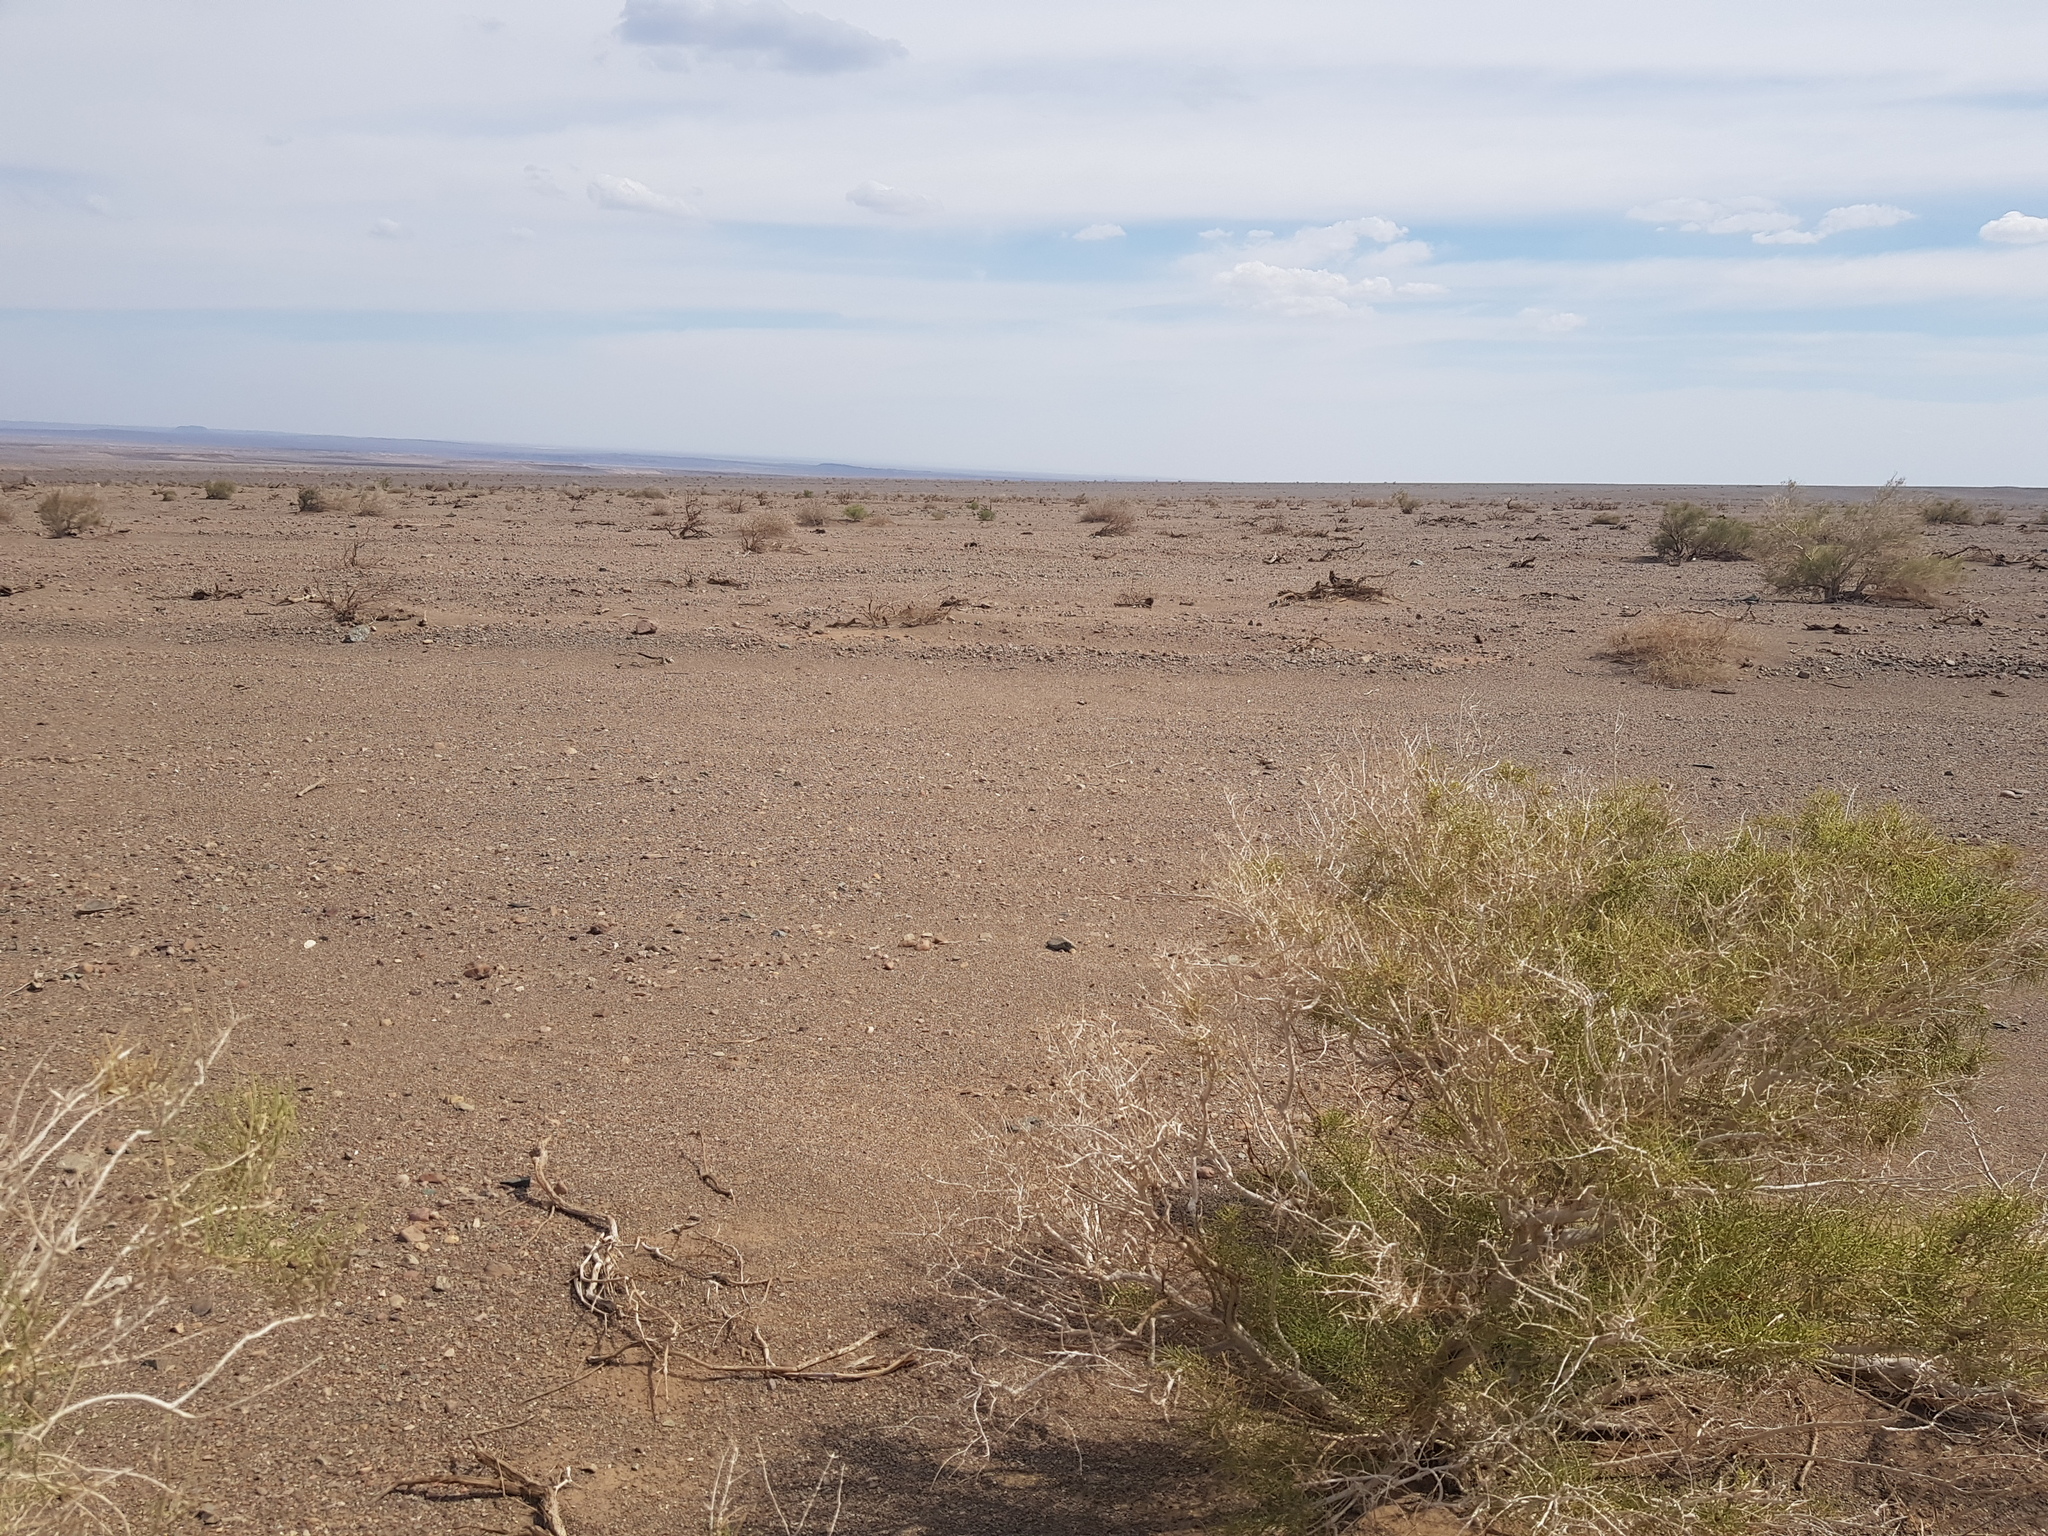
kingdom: Plantae
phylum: Tracheophyta
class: Magnoliopsida
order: Caryophyllales
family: Polygonaceae
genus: Calligonum
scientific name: Calligonum mongolicum
